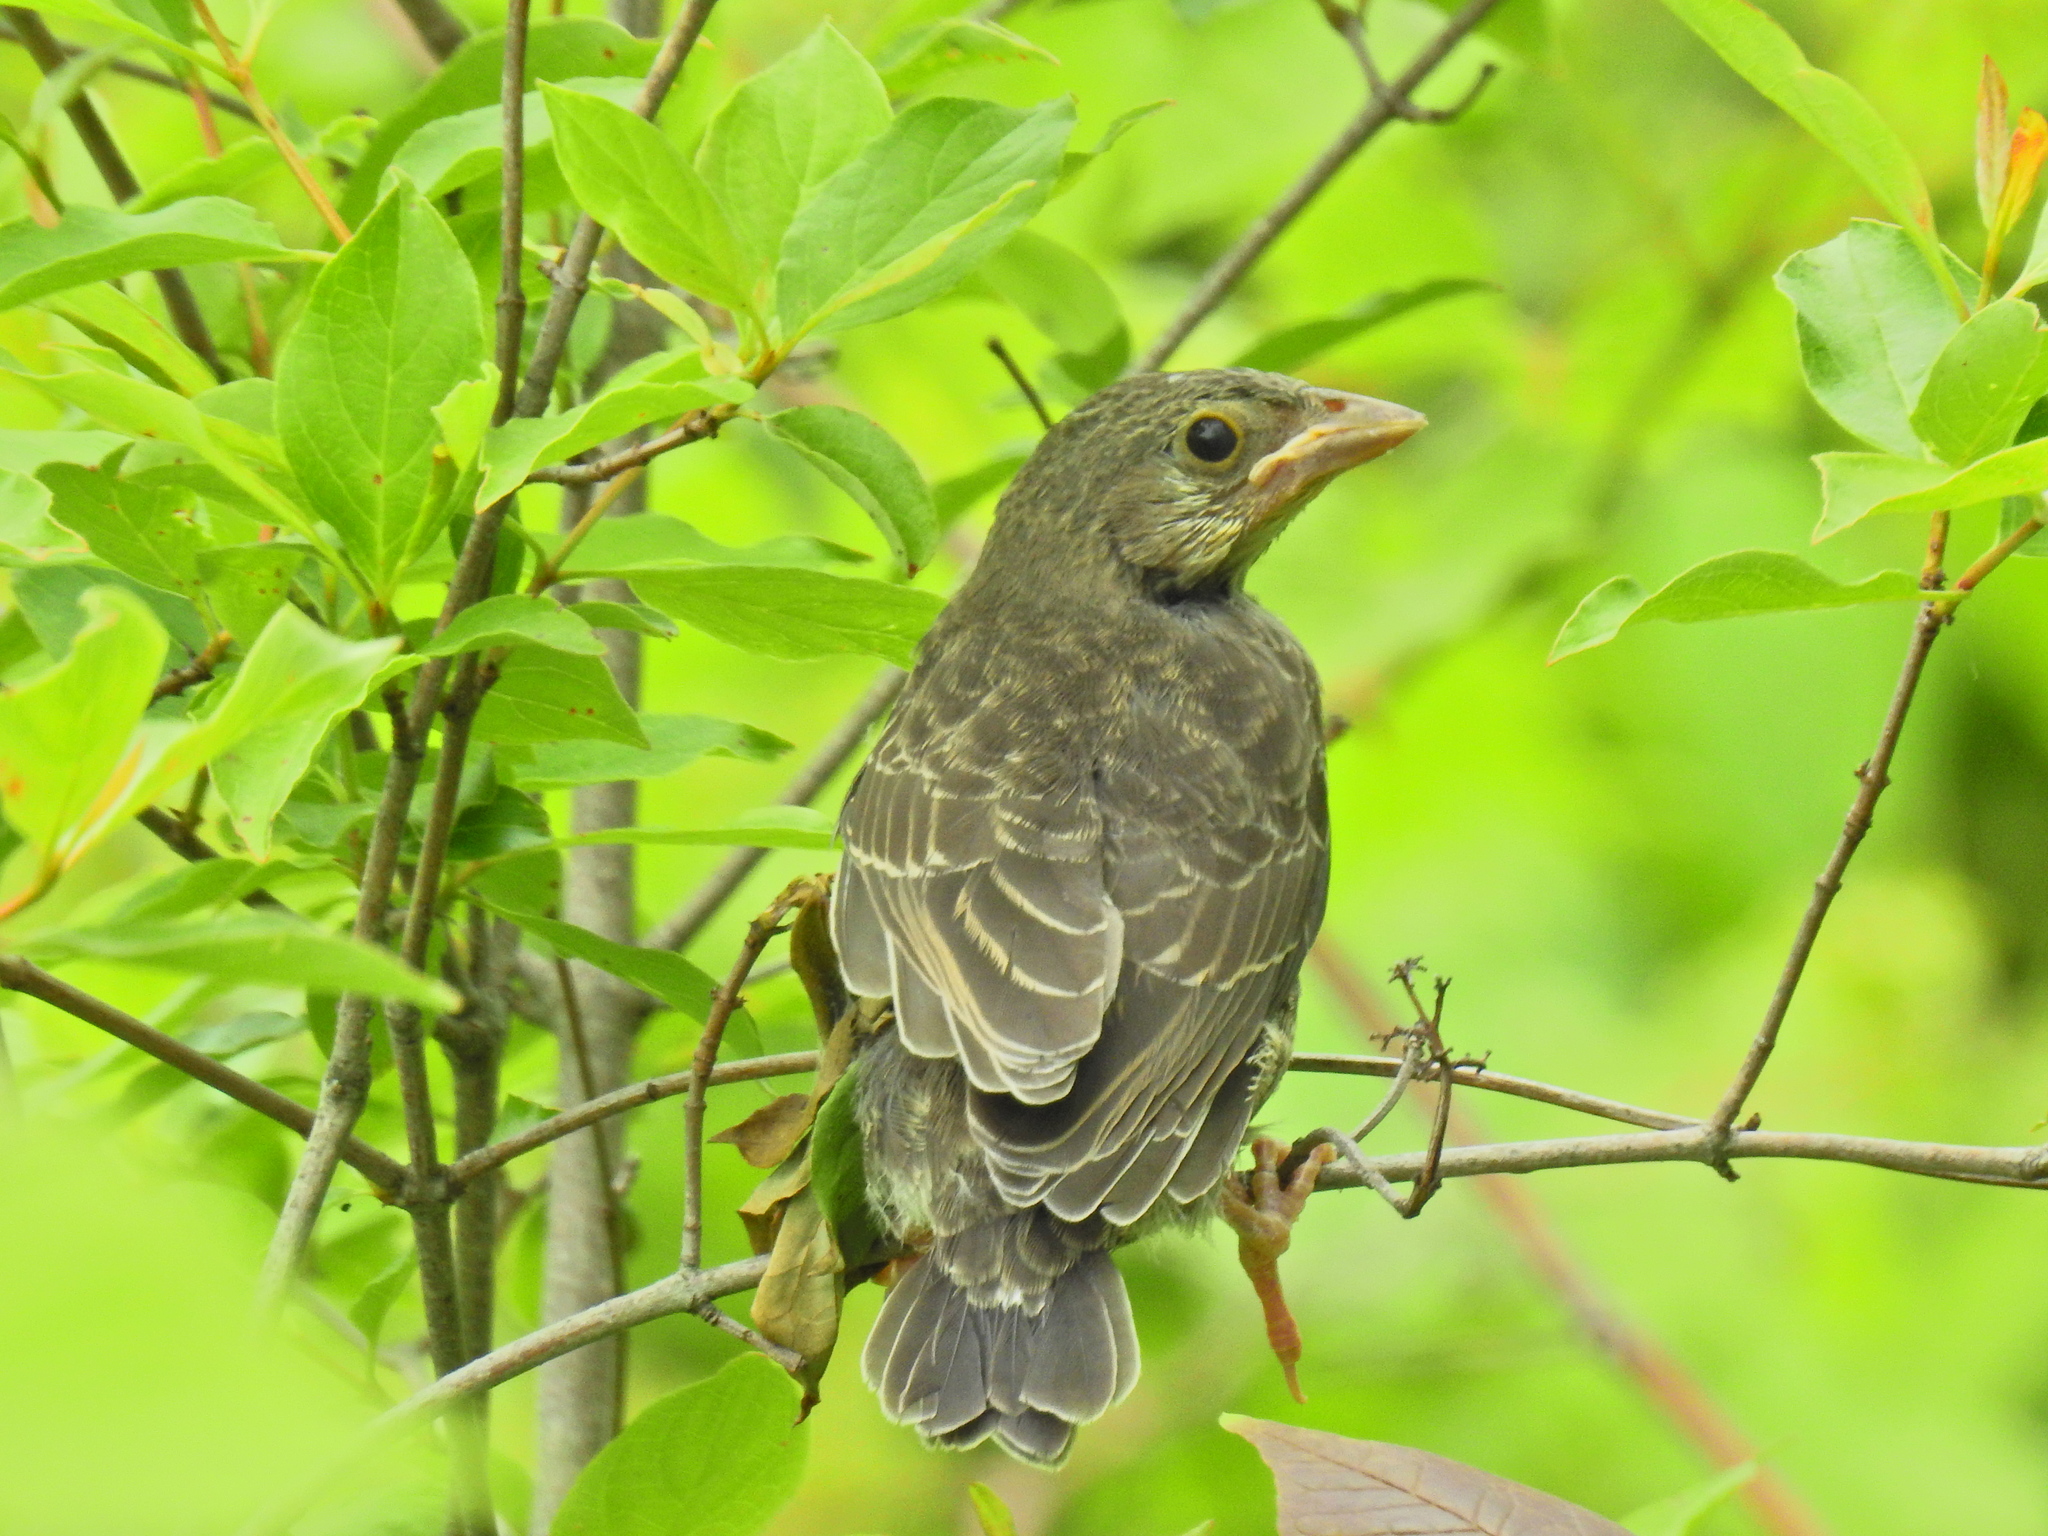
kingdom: Animalia
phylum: Chordata
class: Aves
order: Passeriformes
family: Icteridae
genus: Molothrus
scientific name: Molothrus ater
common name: Brown-headed cowbird
